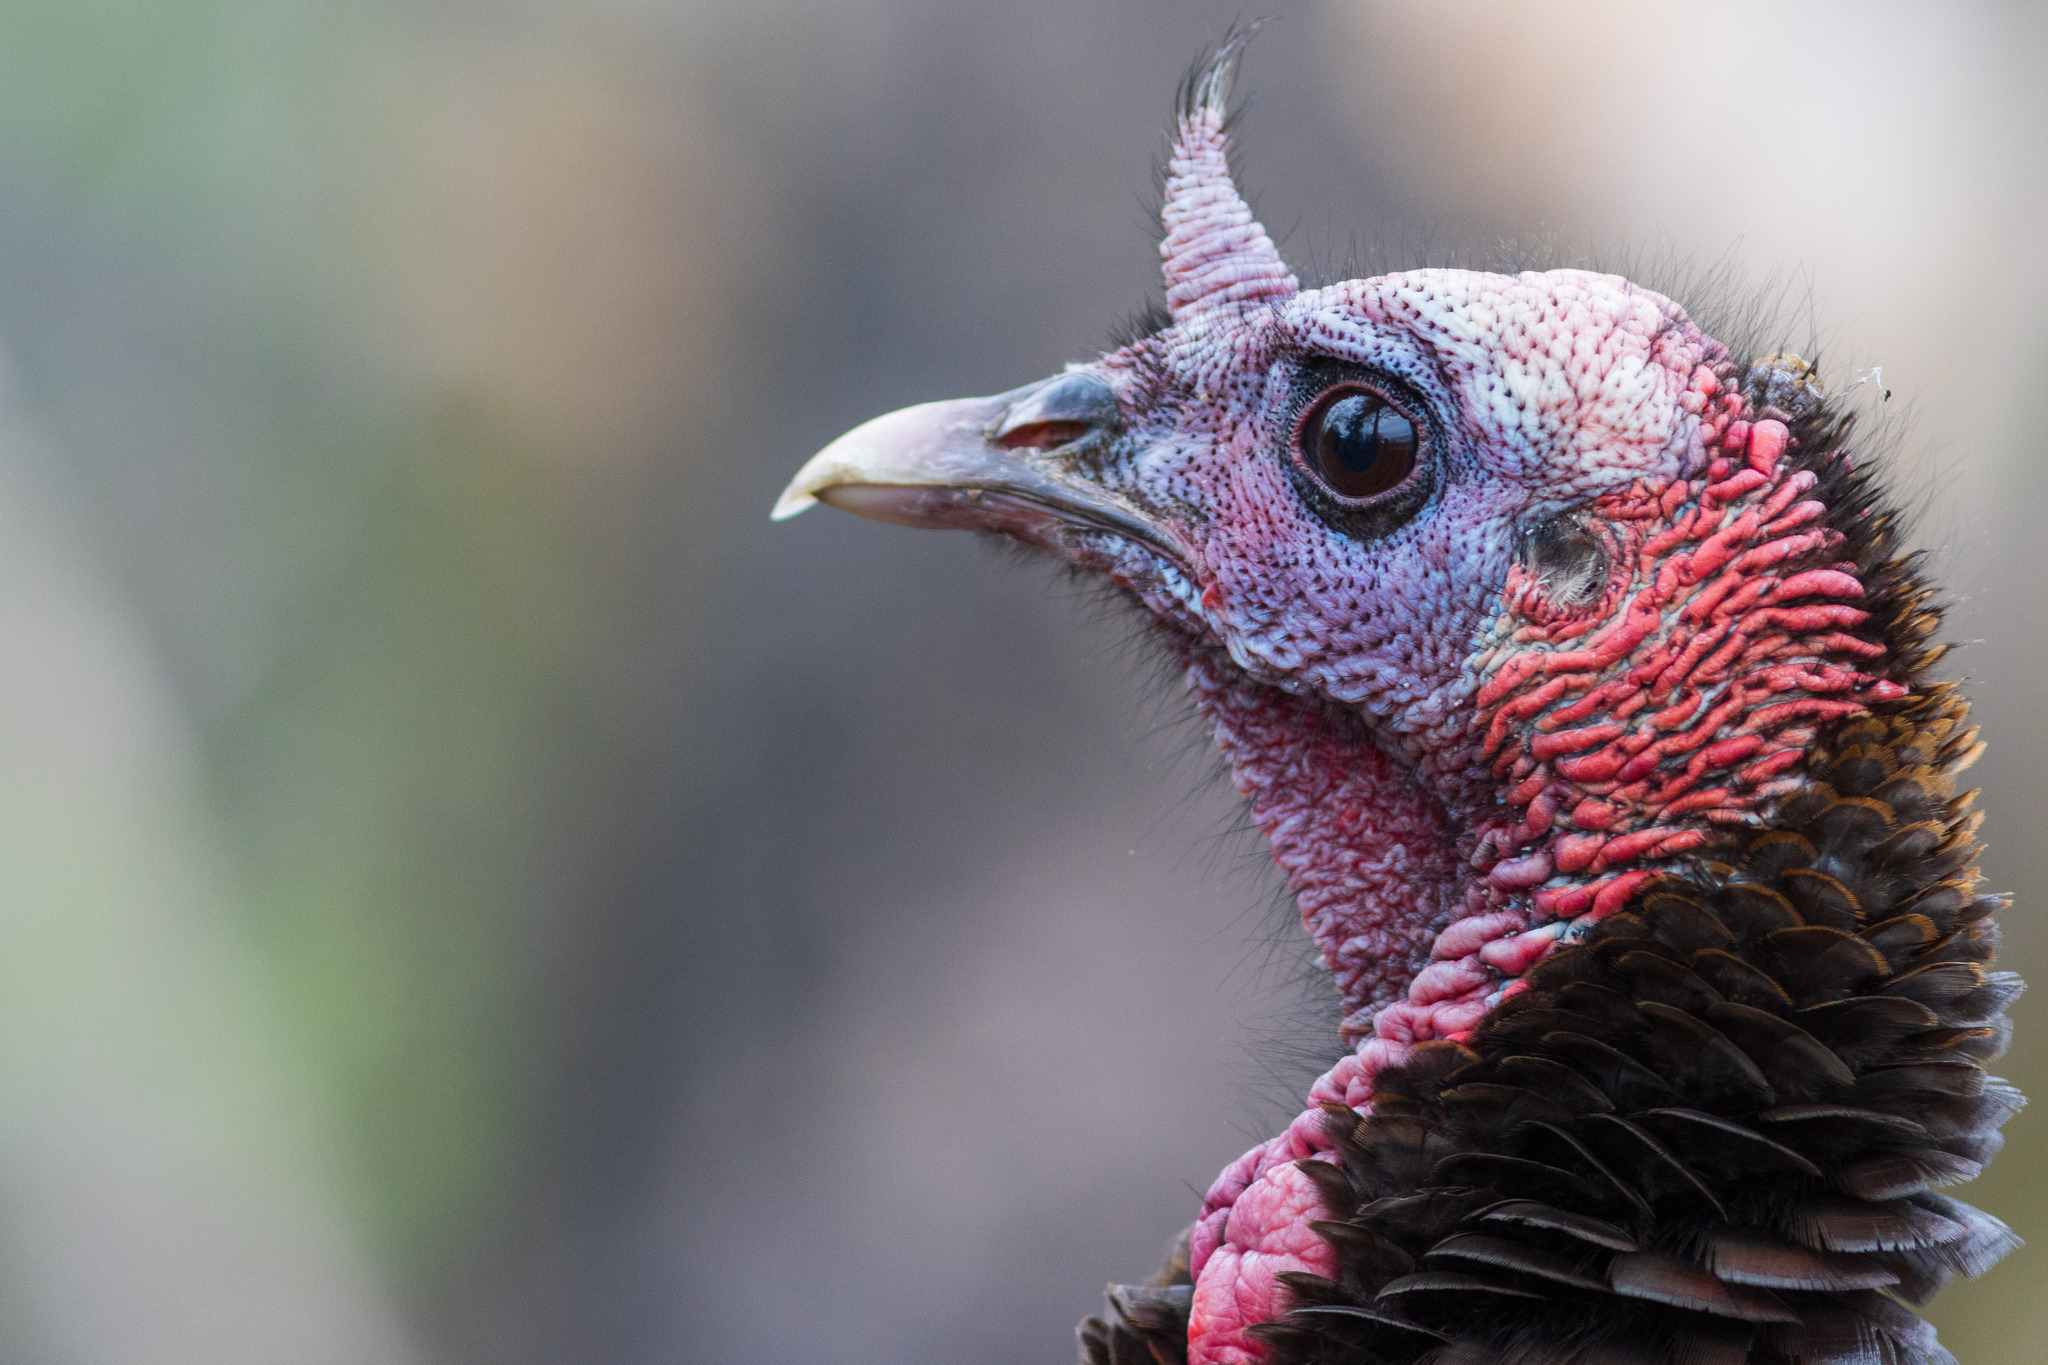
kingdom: Animalia
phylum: Chordata
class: Aves
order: Galliformes
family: Phasianidae
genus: Meleagris
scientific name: Meleagris gallopavo
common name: Wild turkey
